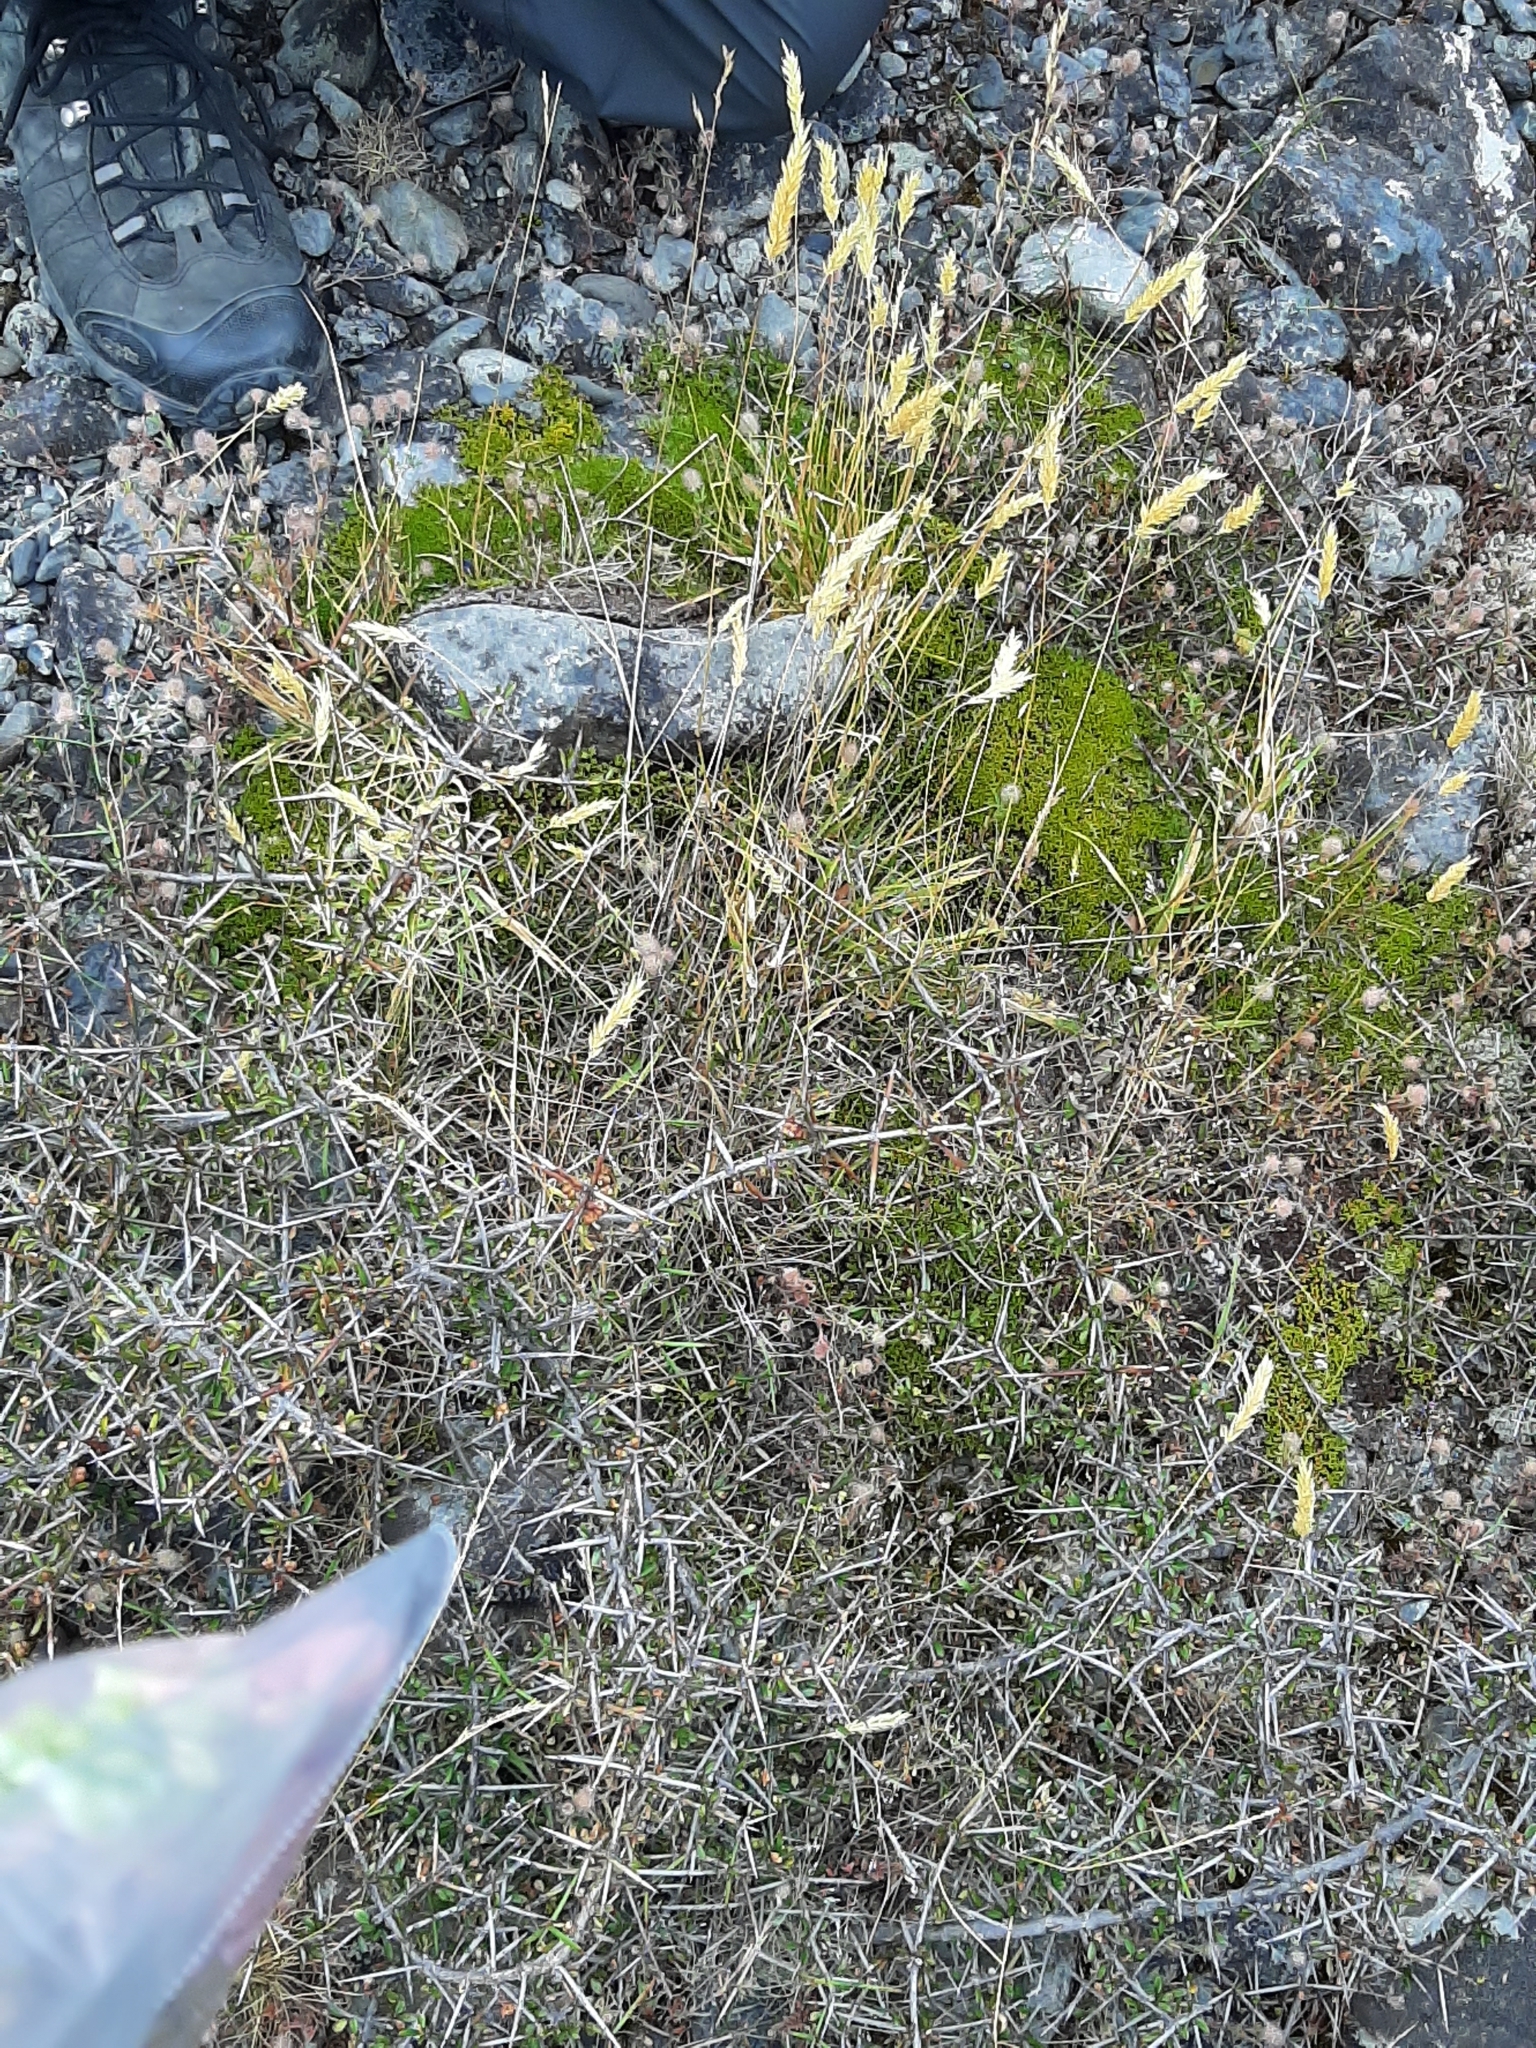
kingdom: Plantae
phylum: Tracheophyta
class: Magnoliopsida
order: Asterales
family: Asteraceae
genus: Raoulia
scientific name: Raoulia haastii
